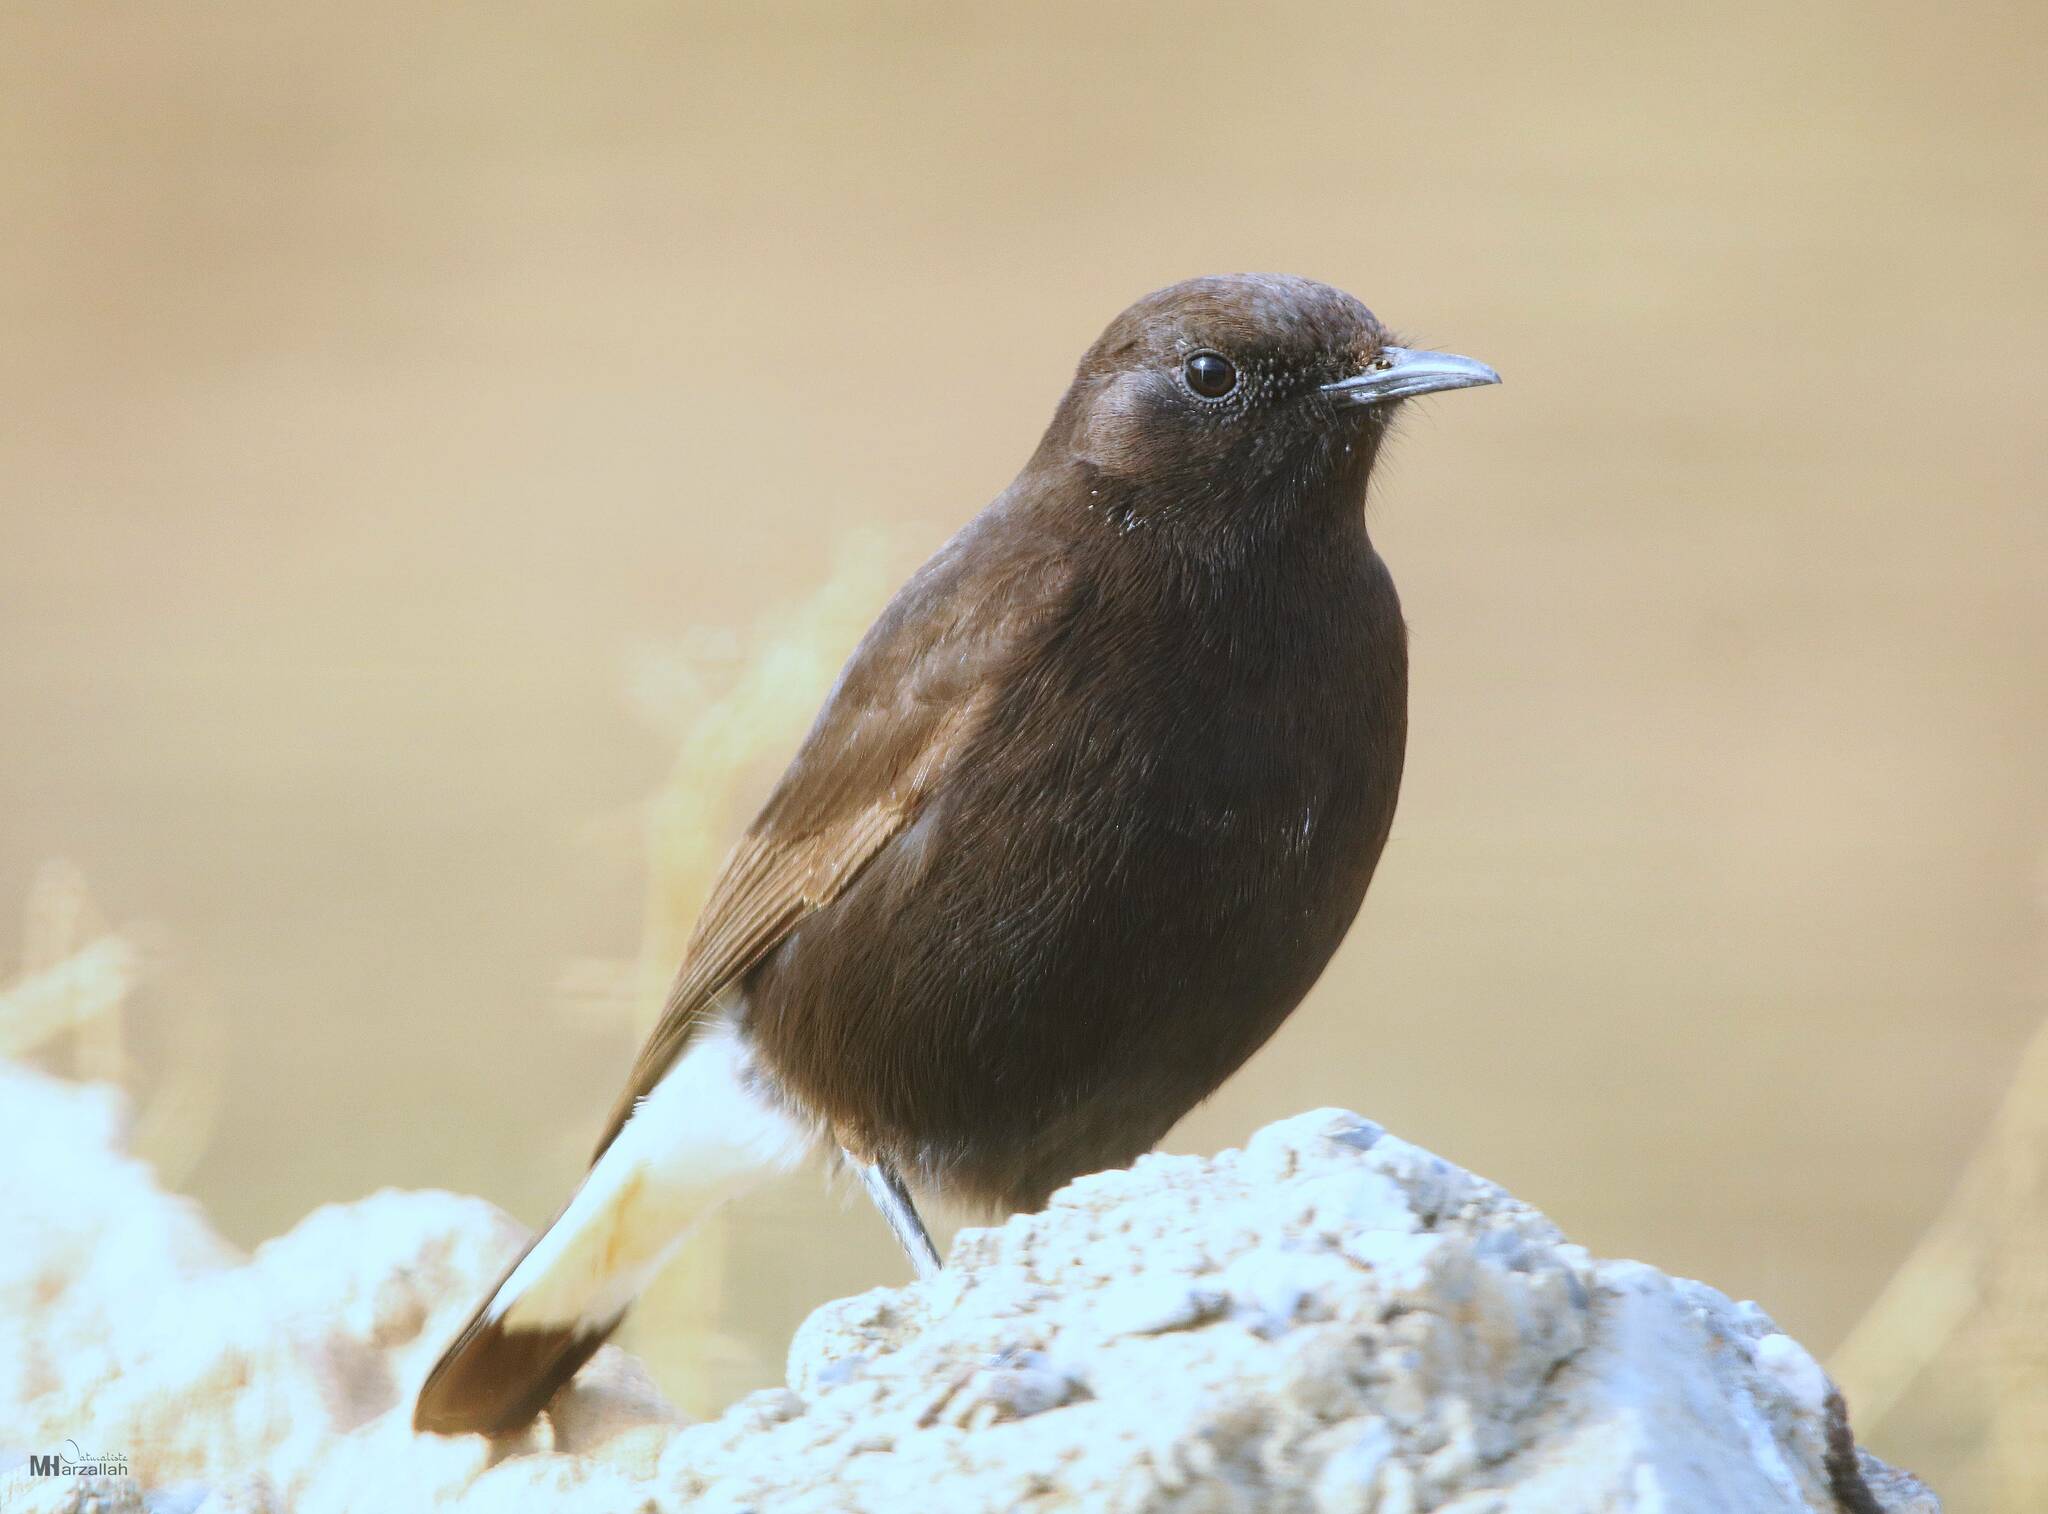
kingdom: Animalia
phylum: Chordata
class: Aves
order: Passeriformes
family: Muscicapidae
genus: Oenanthe
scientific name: Oenanthe leucura
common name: Black wheatear
